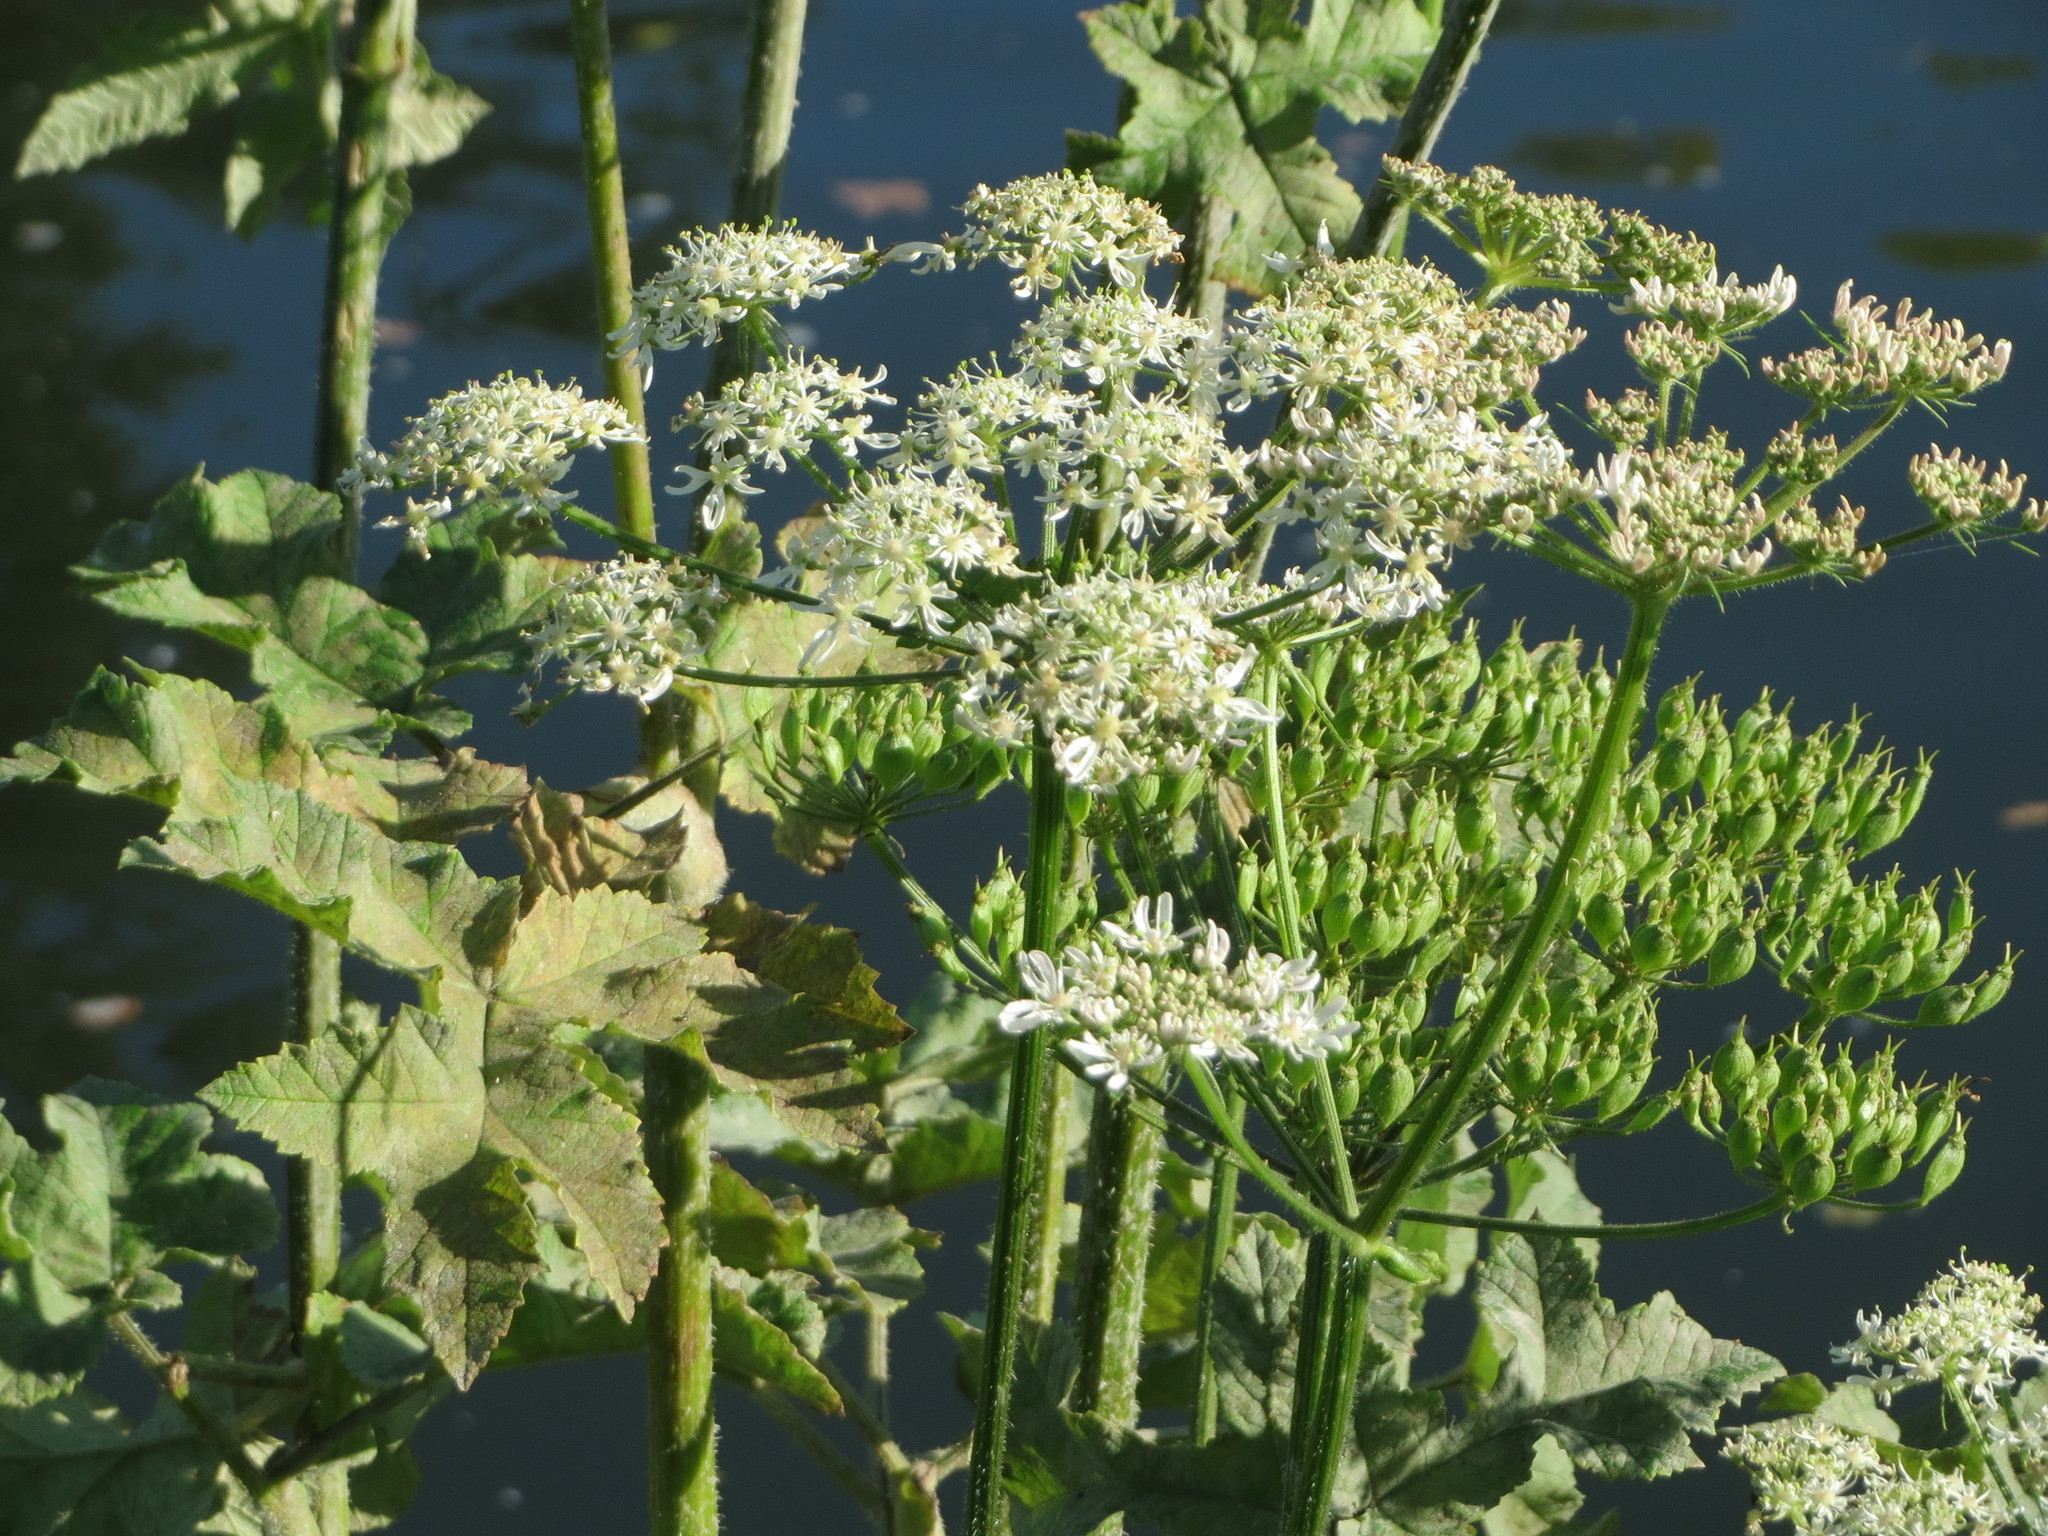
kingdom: Plantae
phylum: Tracheophyta
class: Magnoliopsida
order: Apiales
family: Apiaceae
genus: Heracleum
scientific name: Heracleum sphondylium
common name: Hogweed
